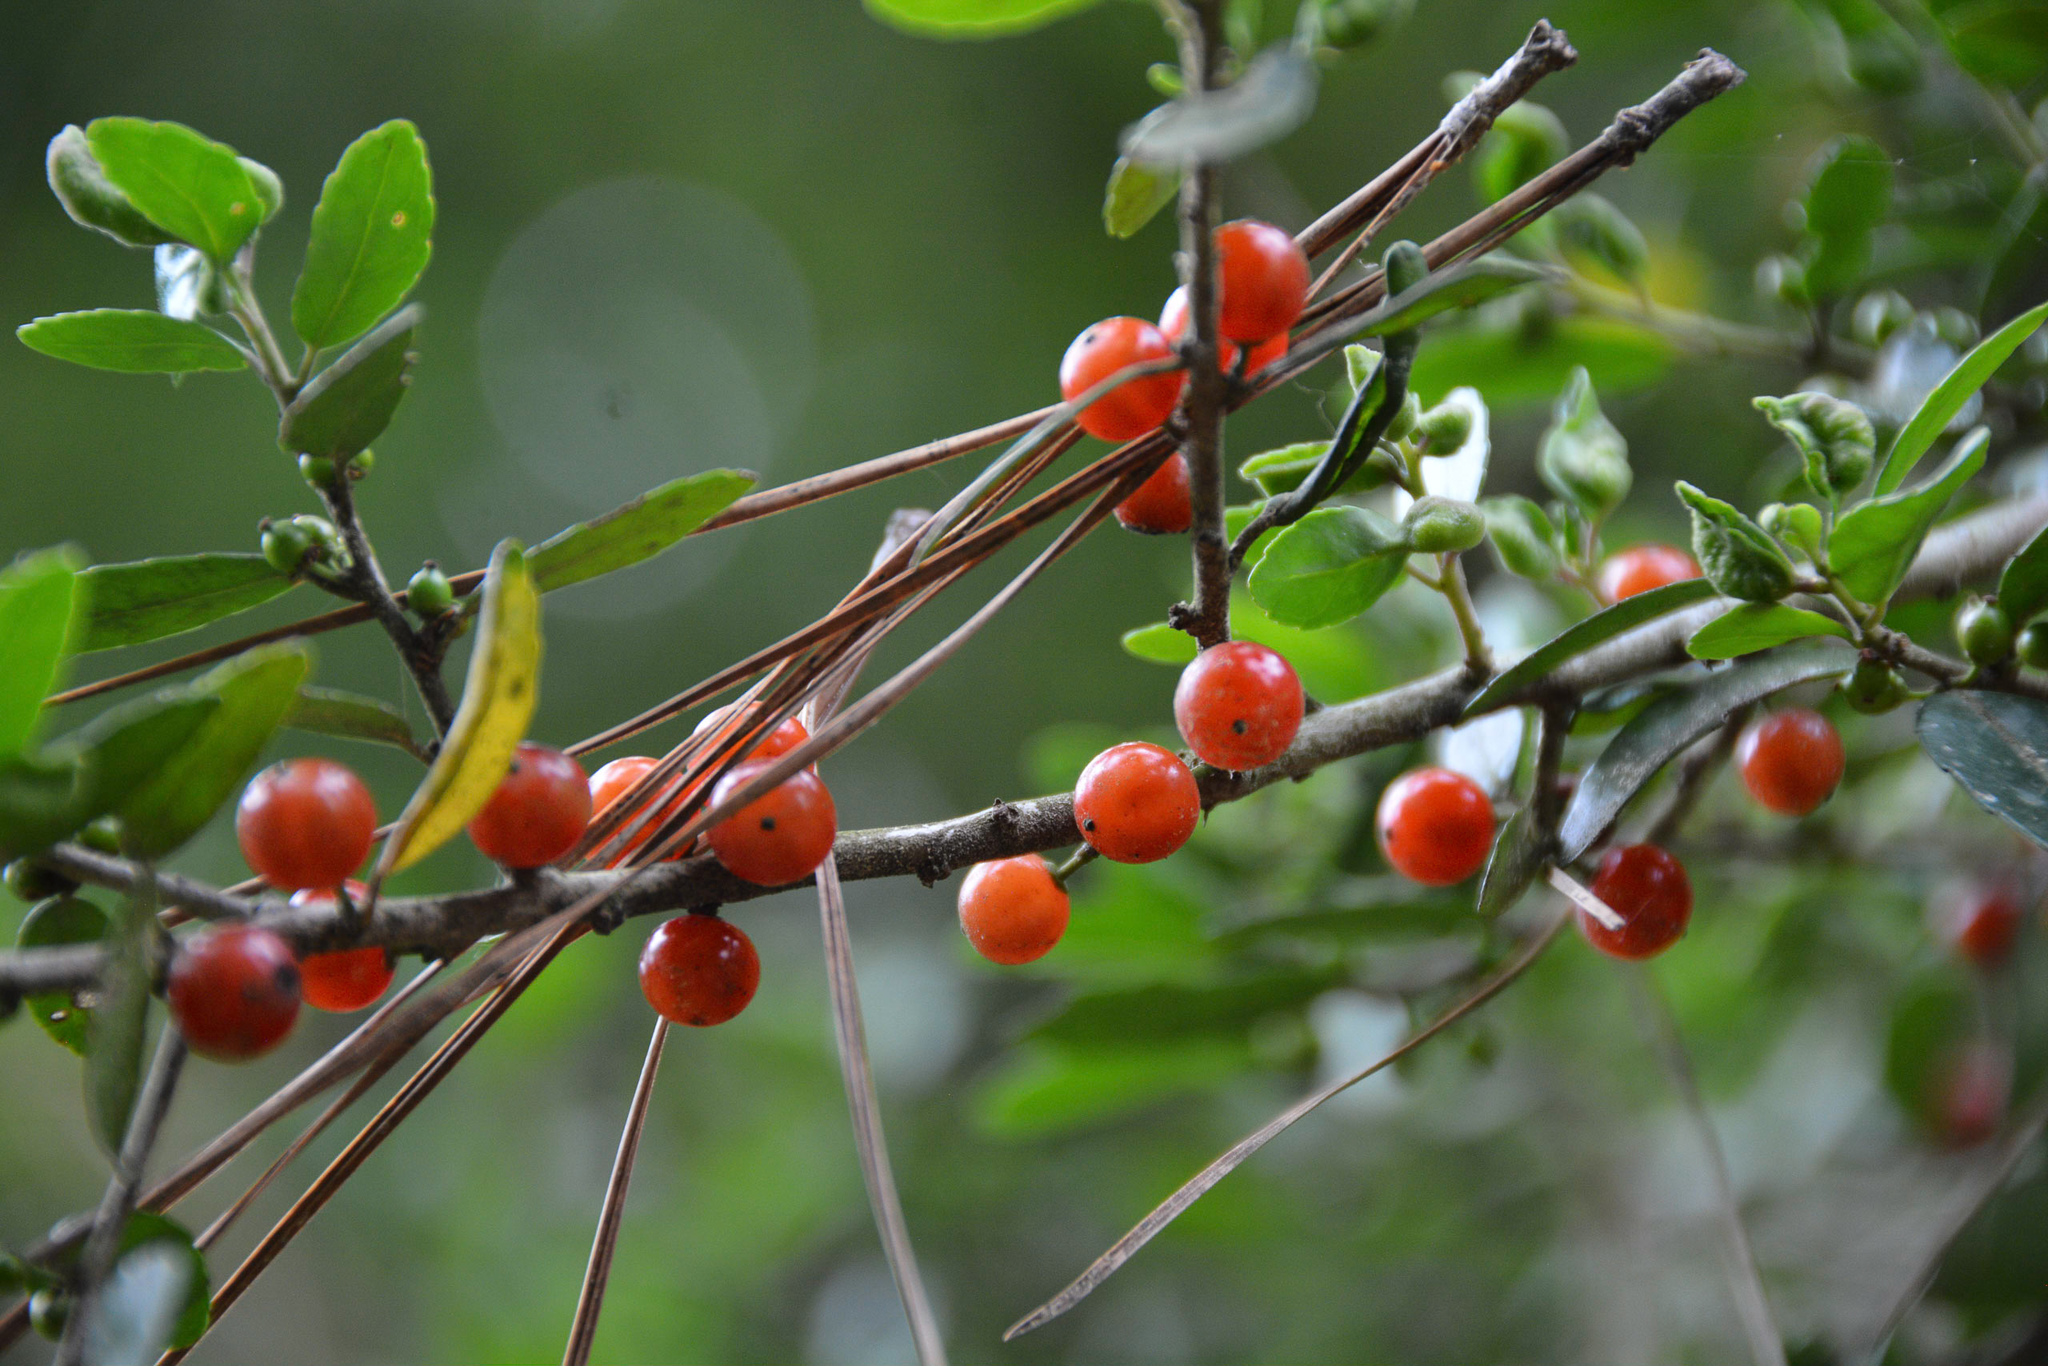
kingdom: Plantae
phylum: Tracheophyta
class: Magnoliopsida
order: Aquifoliales
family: Aquifoliaceae
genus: Ilex
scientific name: Ilex vomitoria
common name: Yaupon holly
